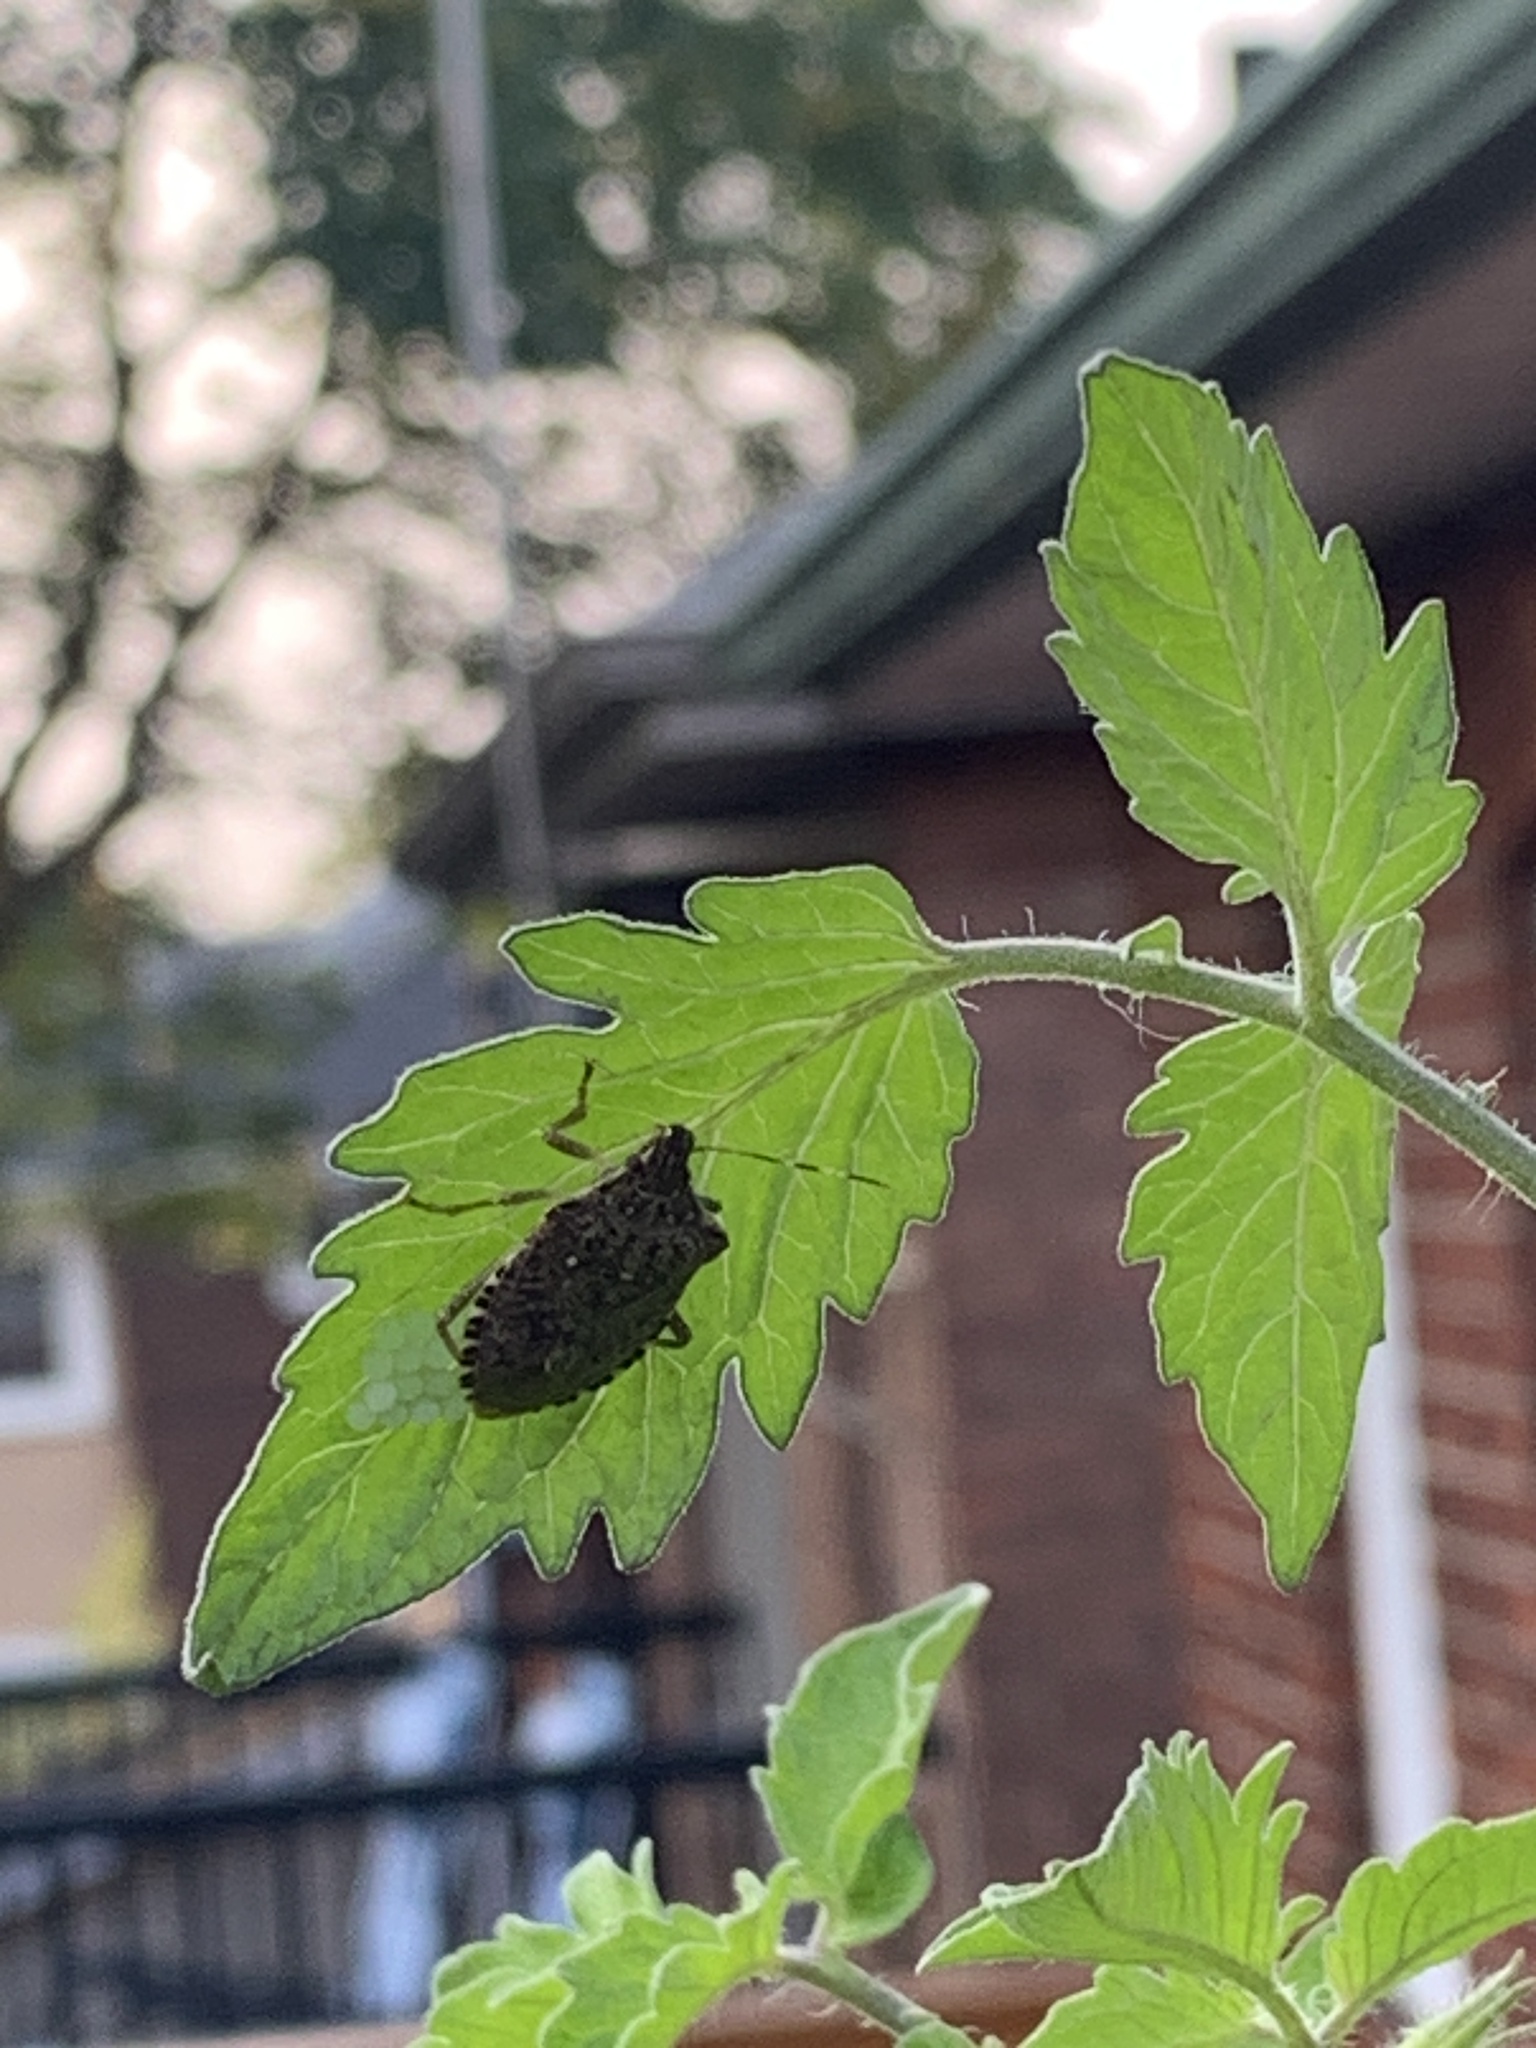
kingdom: Animalia
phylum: Arthropoda
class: Insecta
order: Hemiptera
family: Pentatomidae
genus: Halyomorpha
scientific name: Halyomorpha halys
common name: Brown marmorated stink bug
